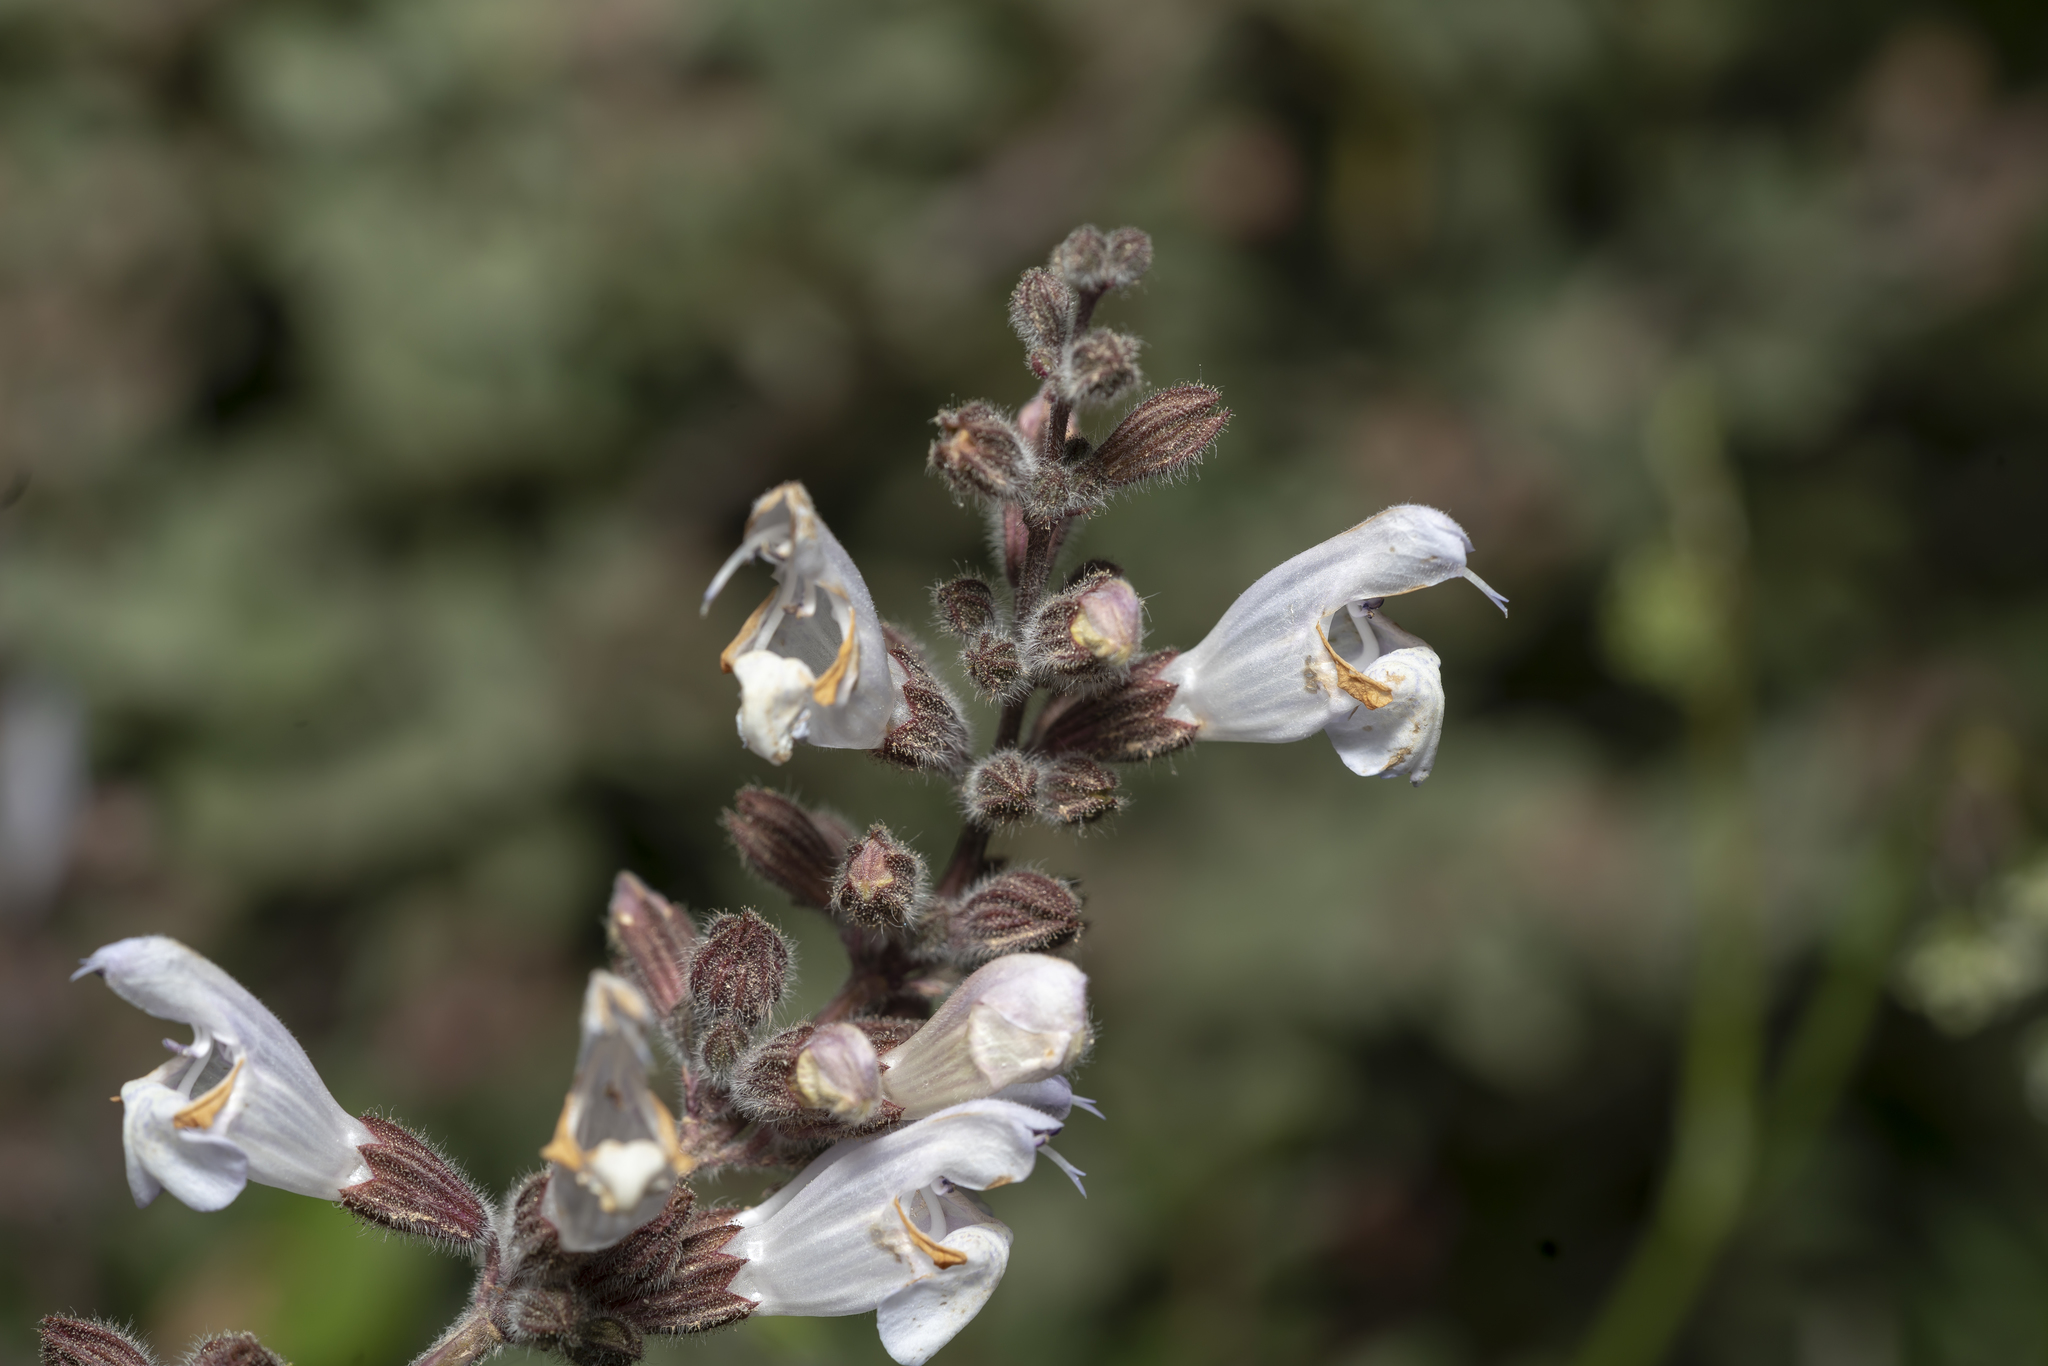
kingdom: Plantae
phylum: Tracheophyta
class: Magnoliopsida
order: Lamiales
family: Lamiaceae
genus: Salvia
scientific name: Salvia fruticosa
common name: Greek sage
